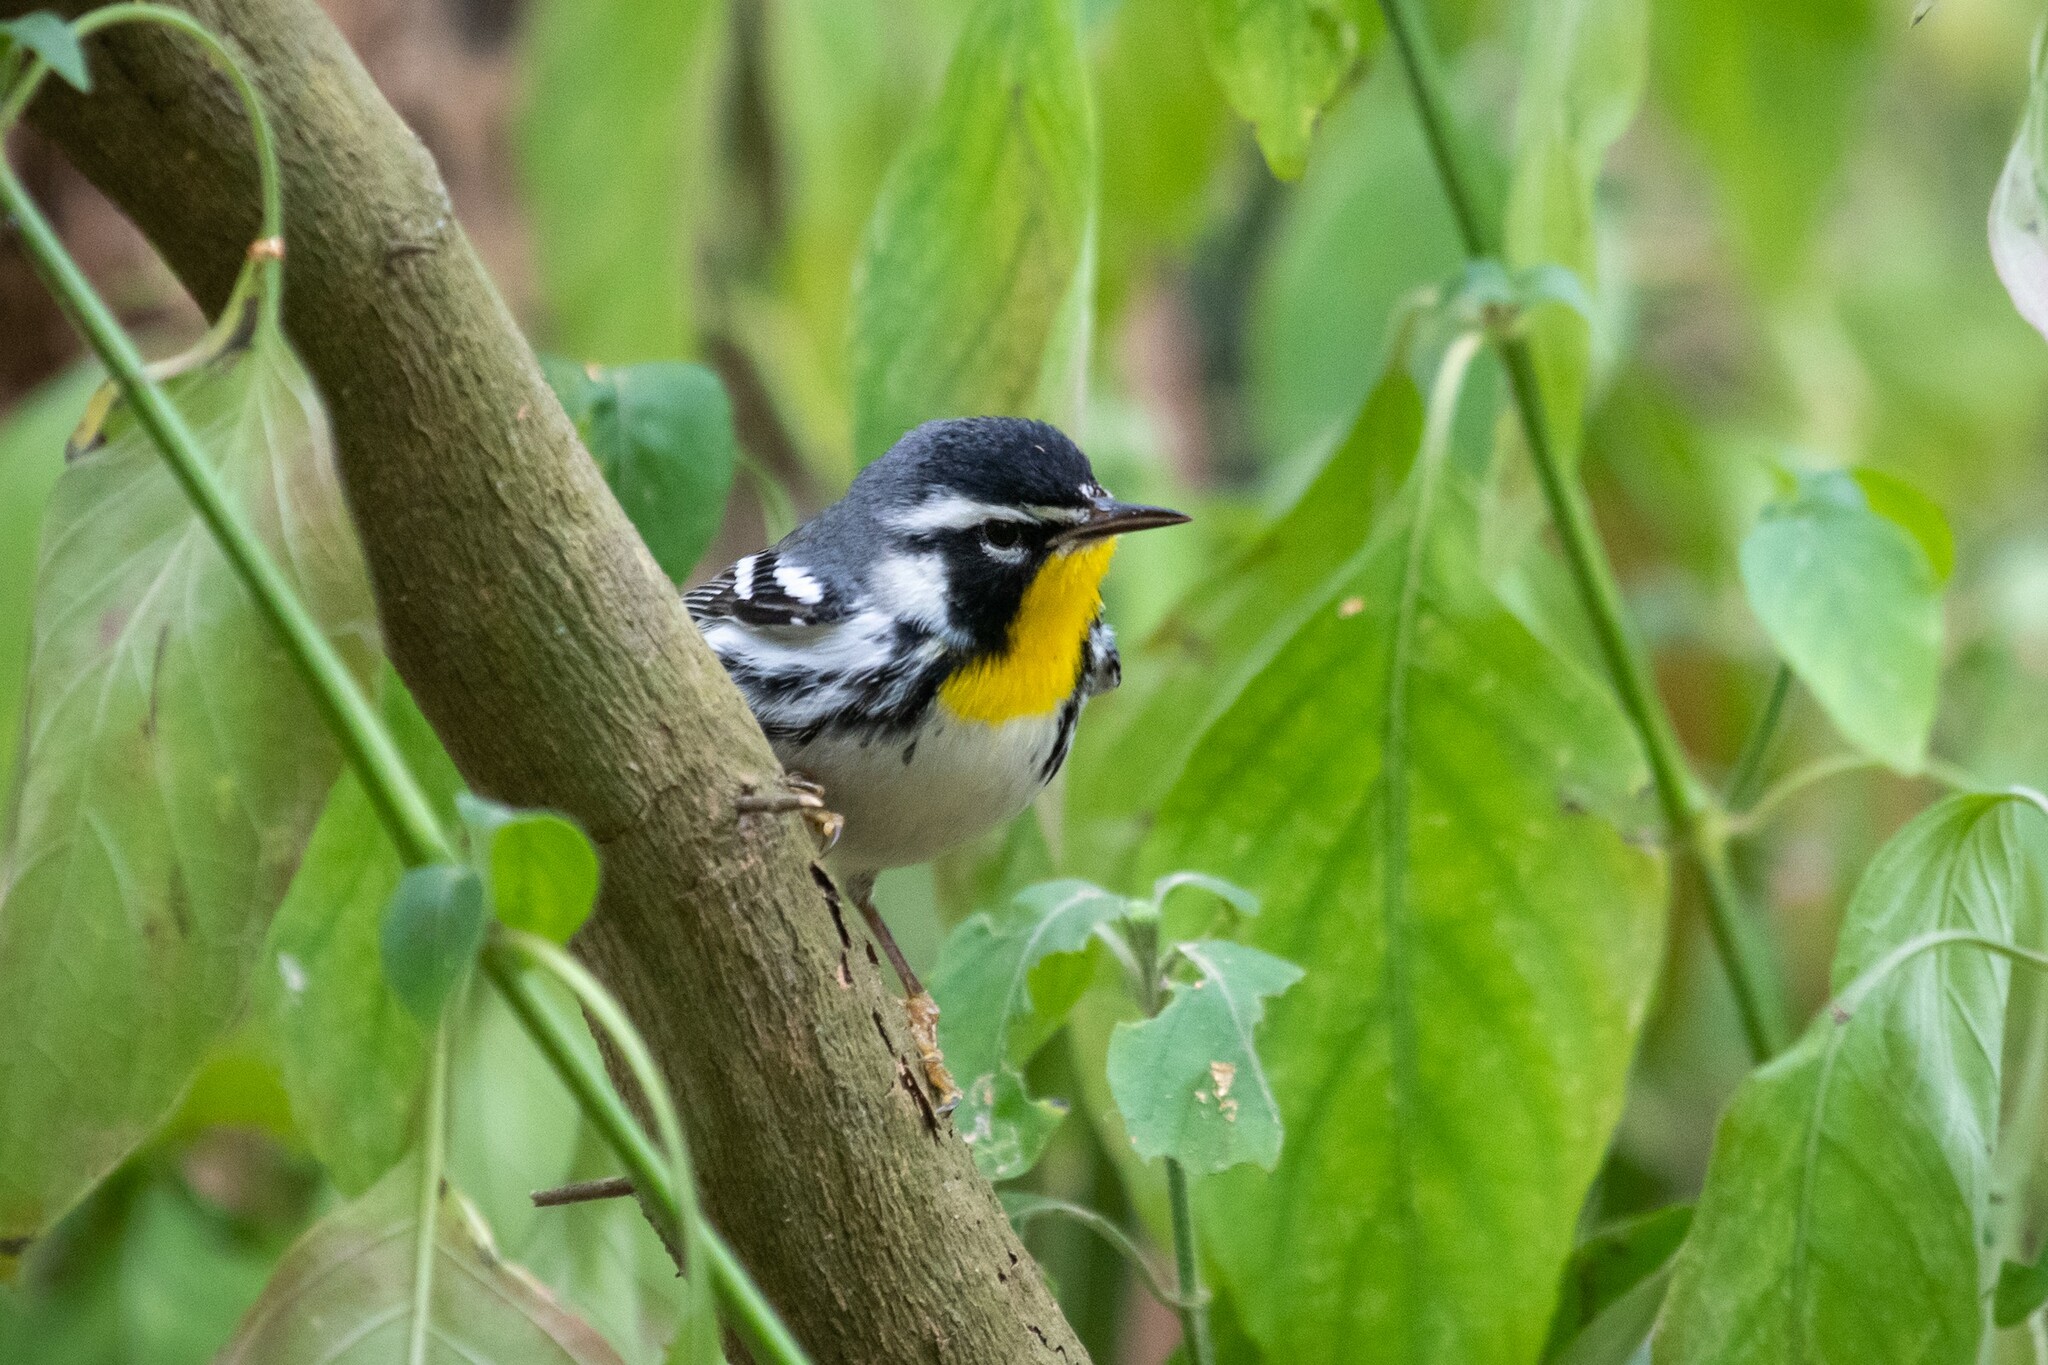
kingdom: Animalia
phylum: Chordata
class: Aves
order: Passeriformes
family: Parulidae
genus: Setophaga
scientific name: Setophaga dominica
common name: Yellow-throated warbler
